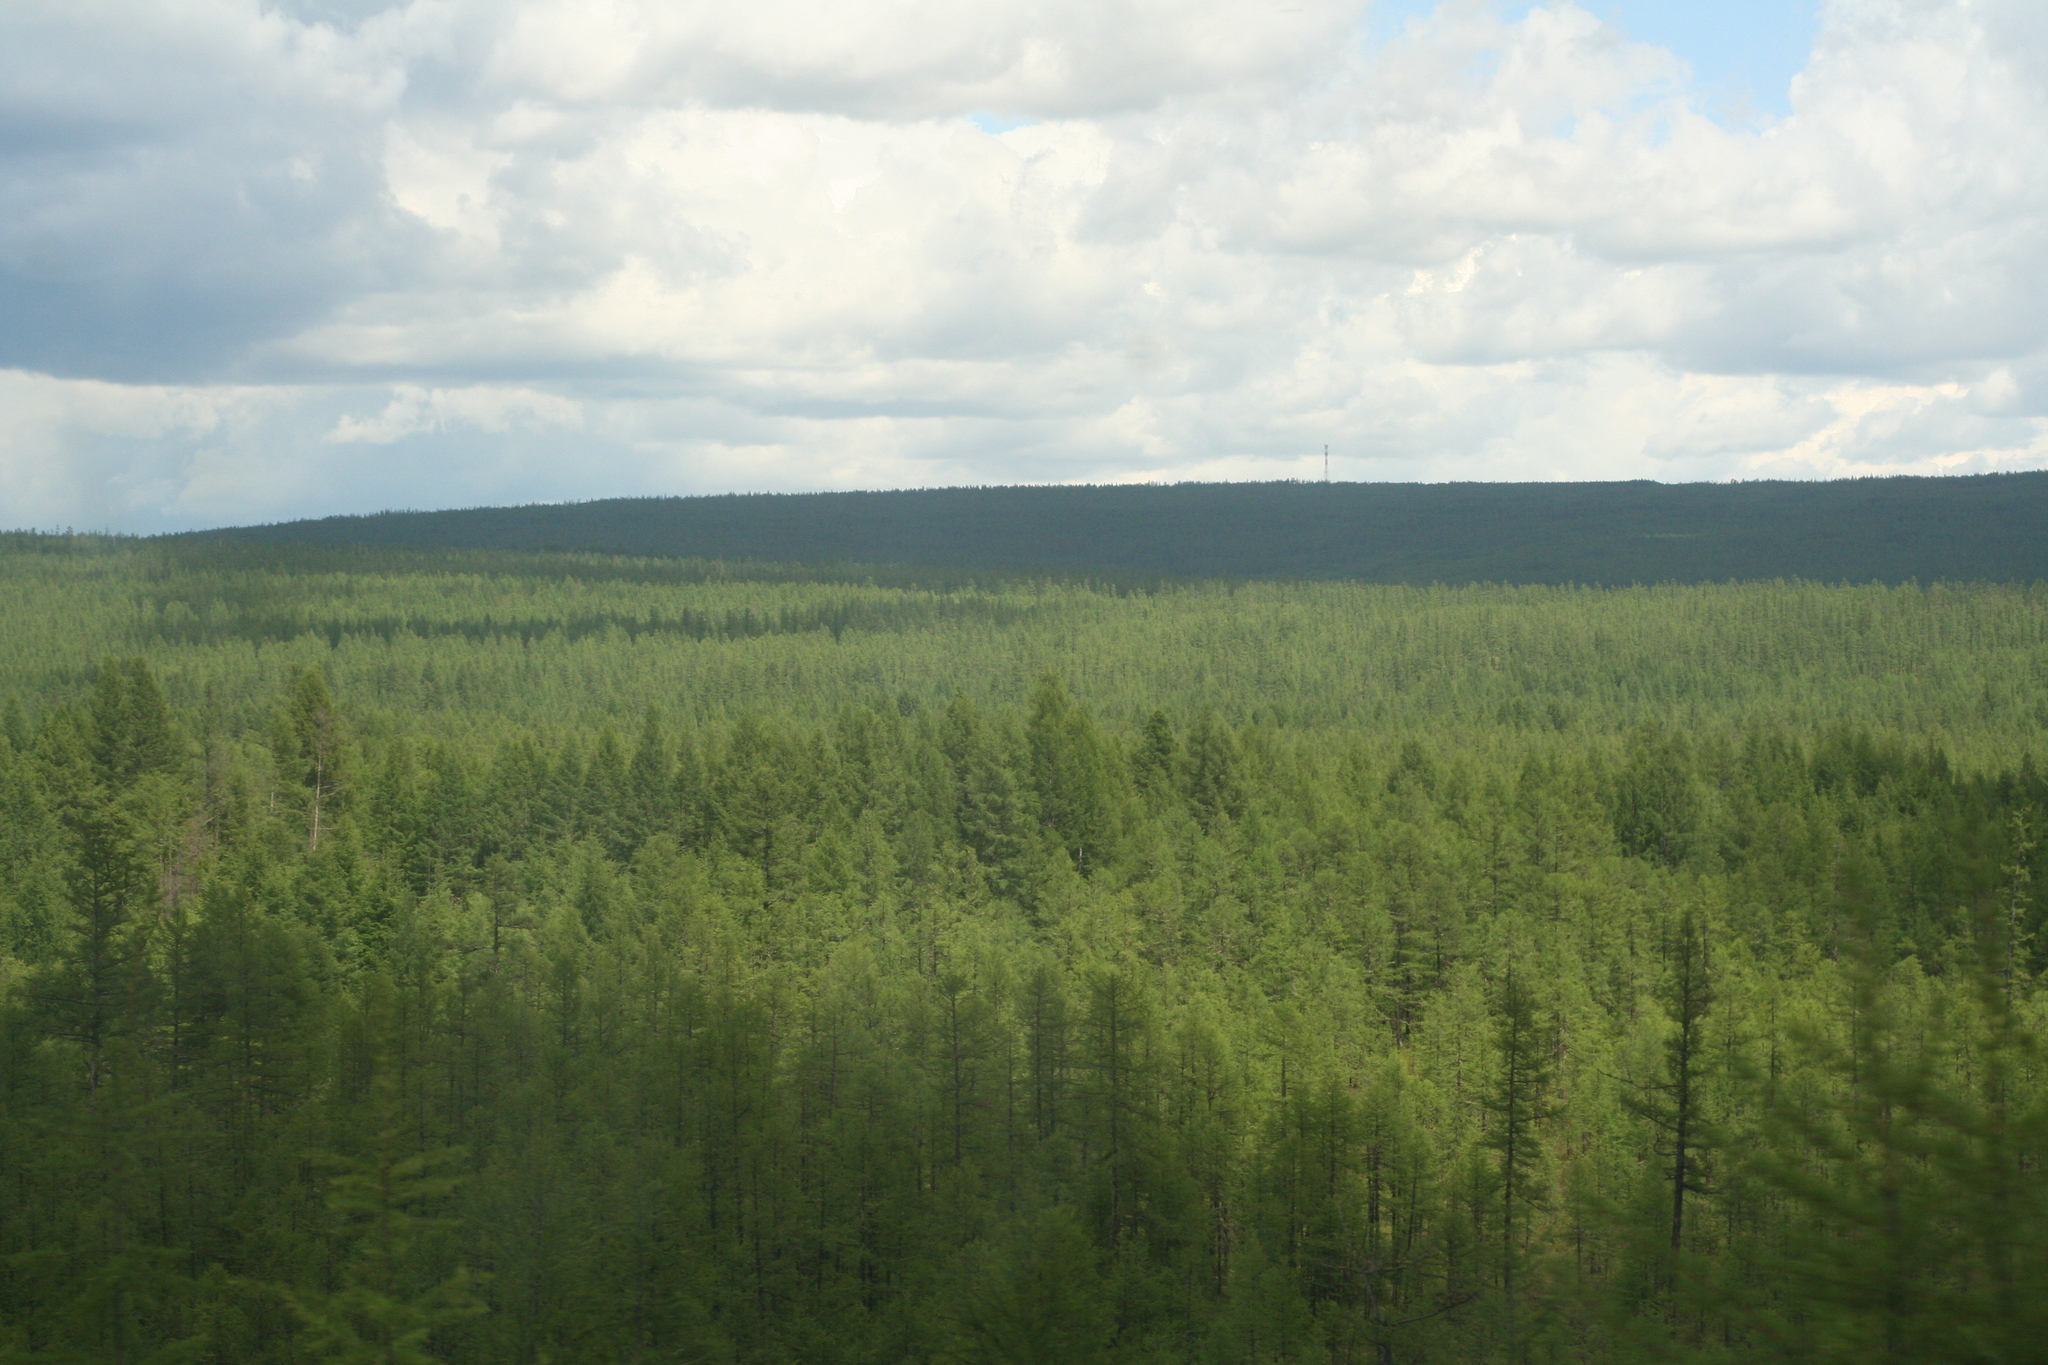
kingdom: Plantae
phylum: Tracheophyta
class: Pinopsida
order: Pinales
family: Pinaceae
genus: Larix
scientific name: Larix gmelinii
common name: Dahurian larch
